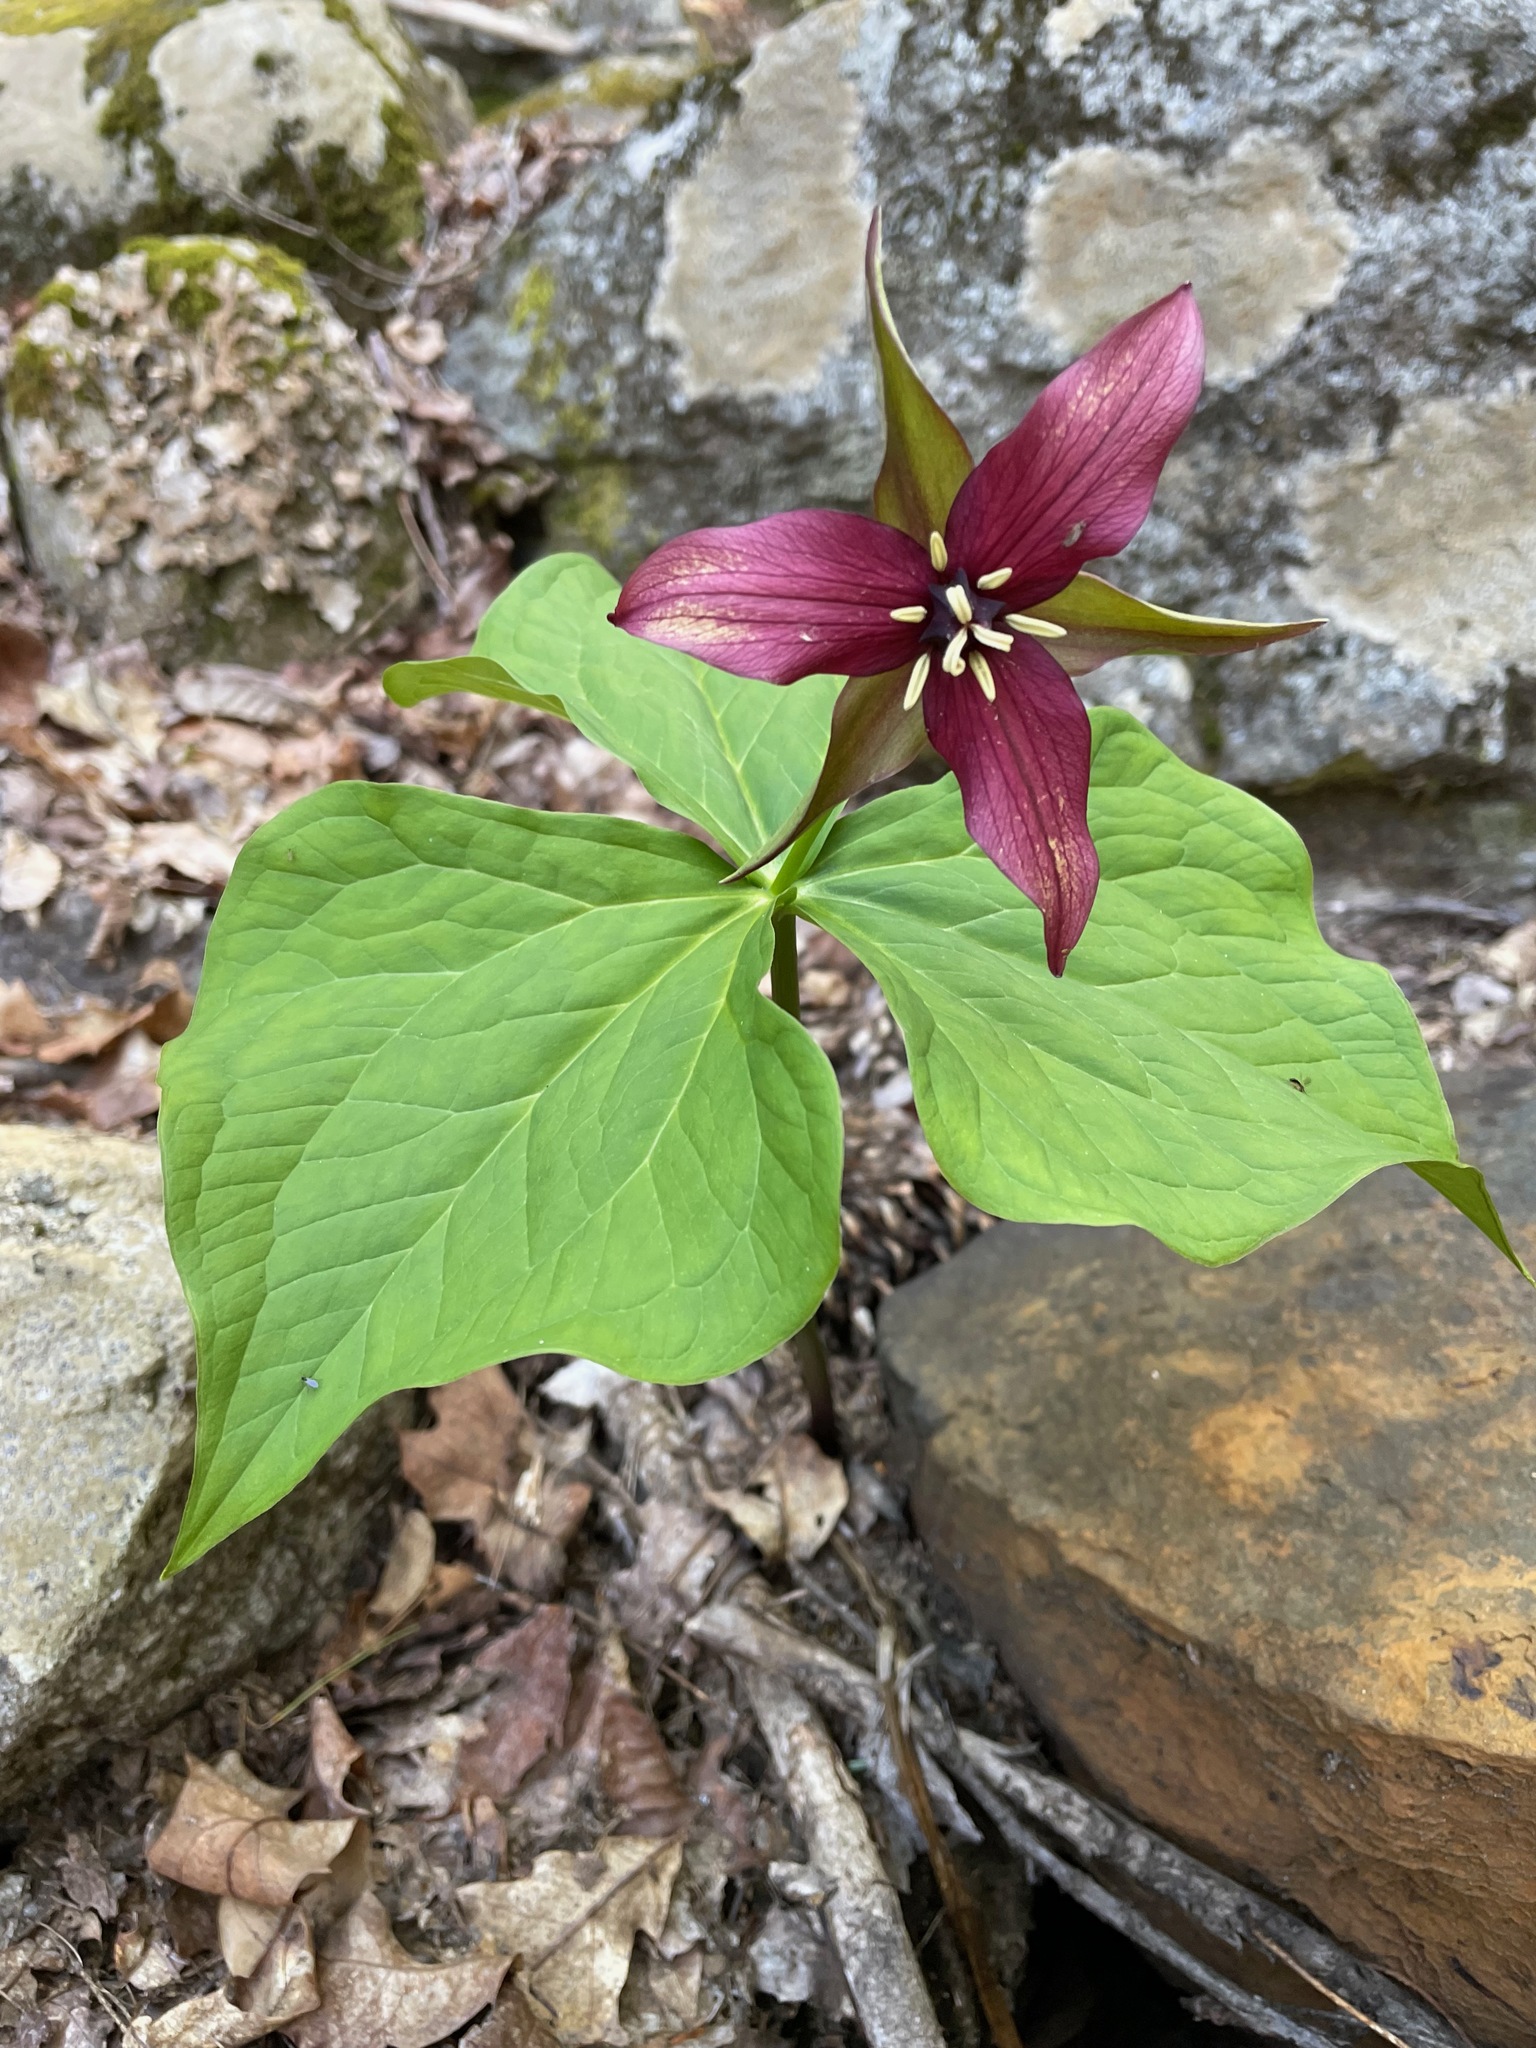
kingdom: Plantae
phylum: Tracheophyta
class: Liliopsida
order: Liliales
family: Melanthiaceae
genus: Trillium
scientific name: Trillium erectum
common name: Purple trillium
